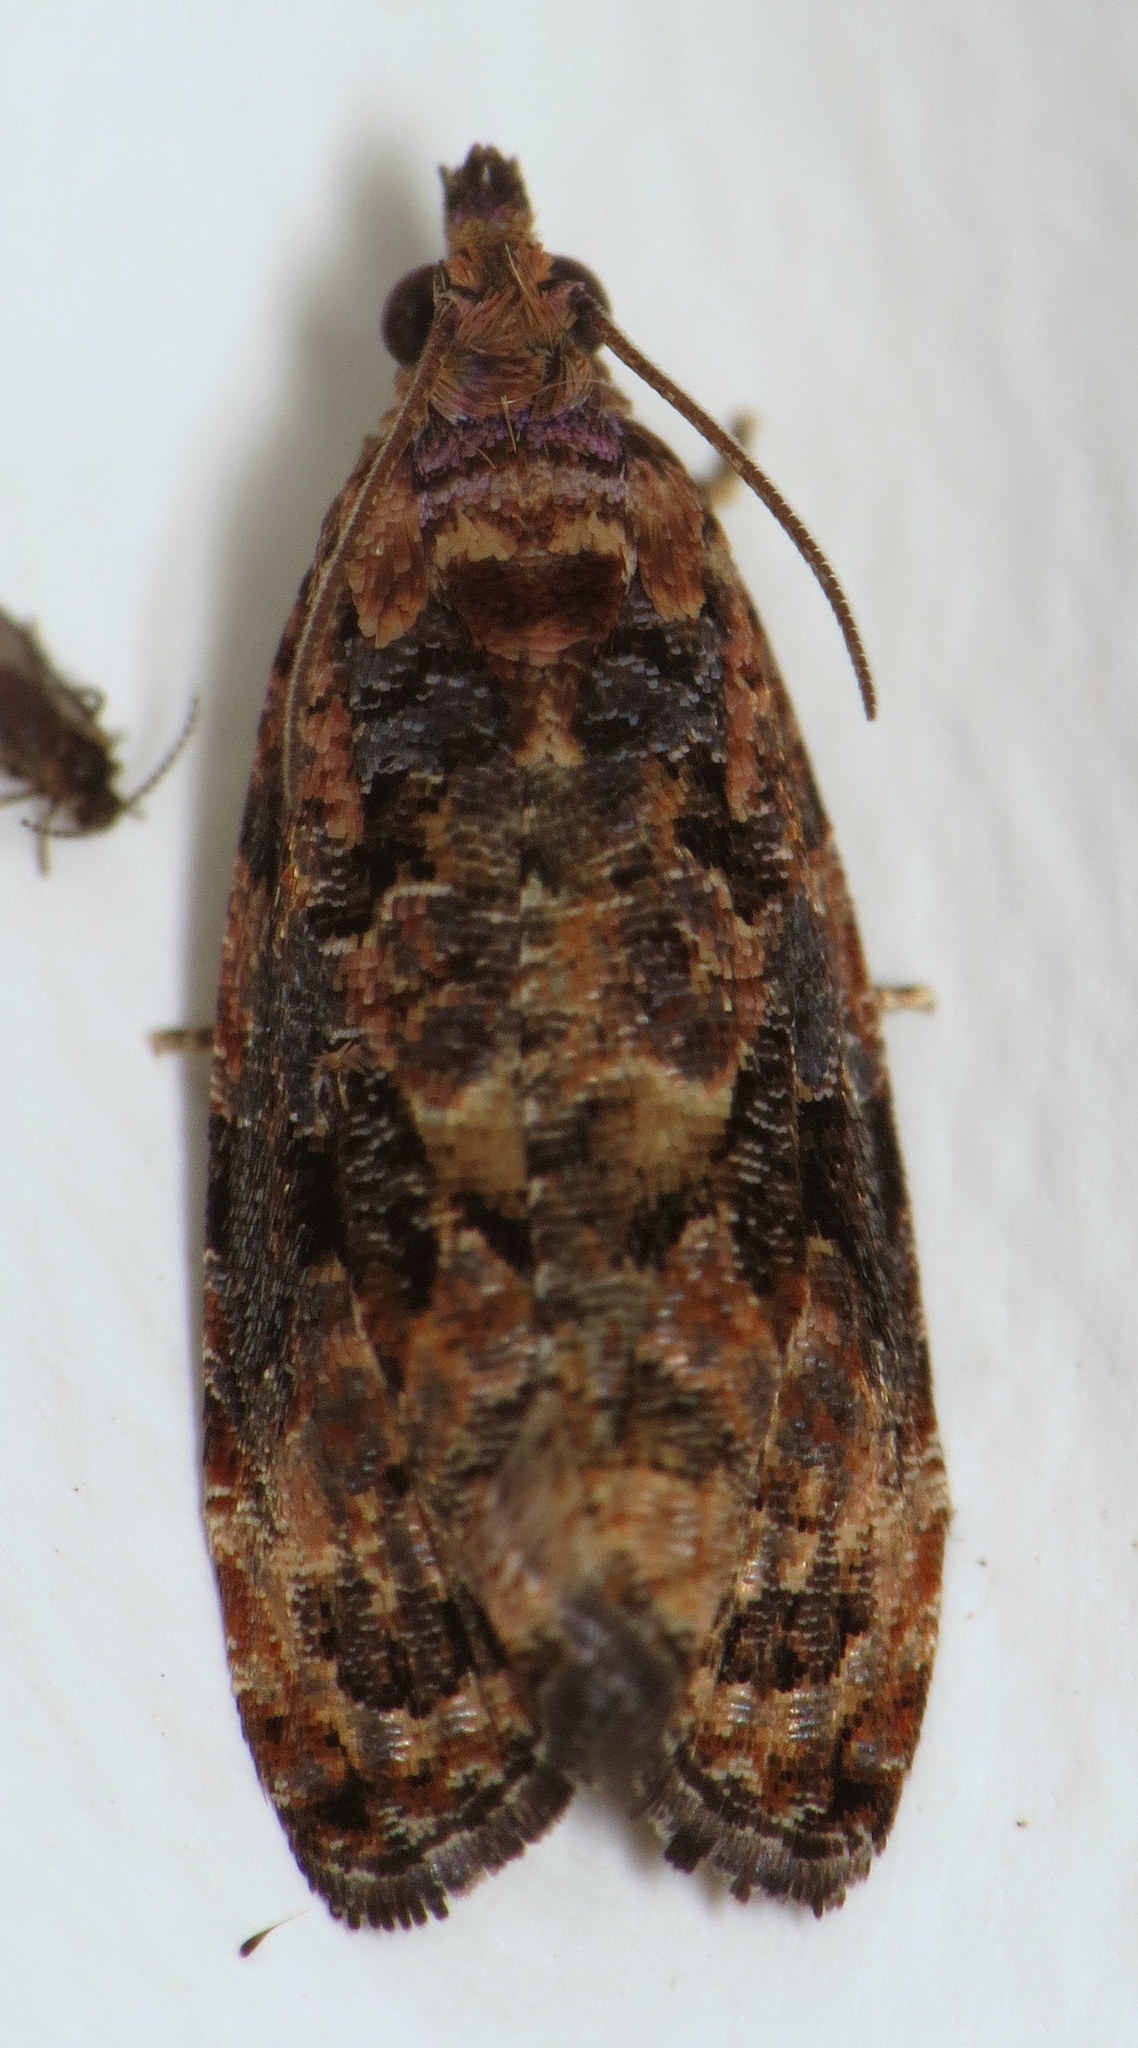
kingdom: Animalia
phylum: Arthropoda
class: Insecta
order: Lepidoptera
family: Tortricidae
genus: Endothenia
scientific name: Endothenia hebesana
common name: Verbena bud moth
